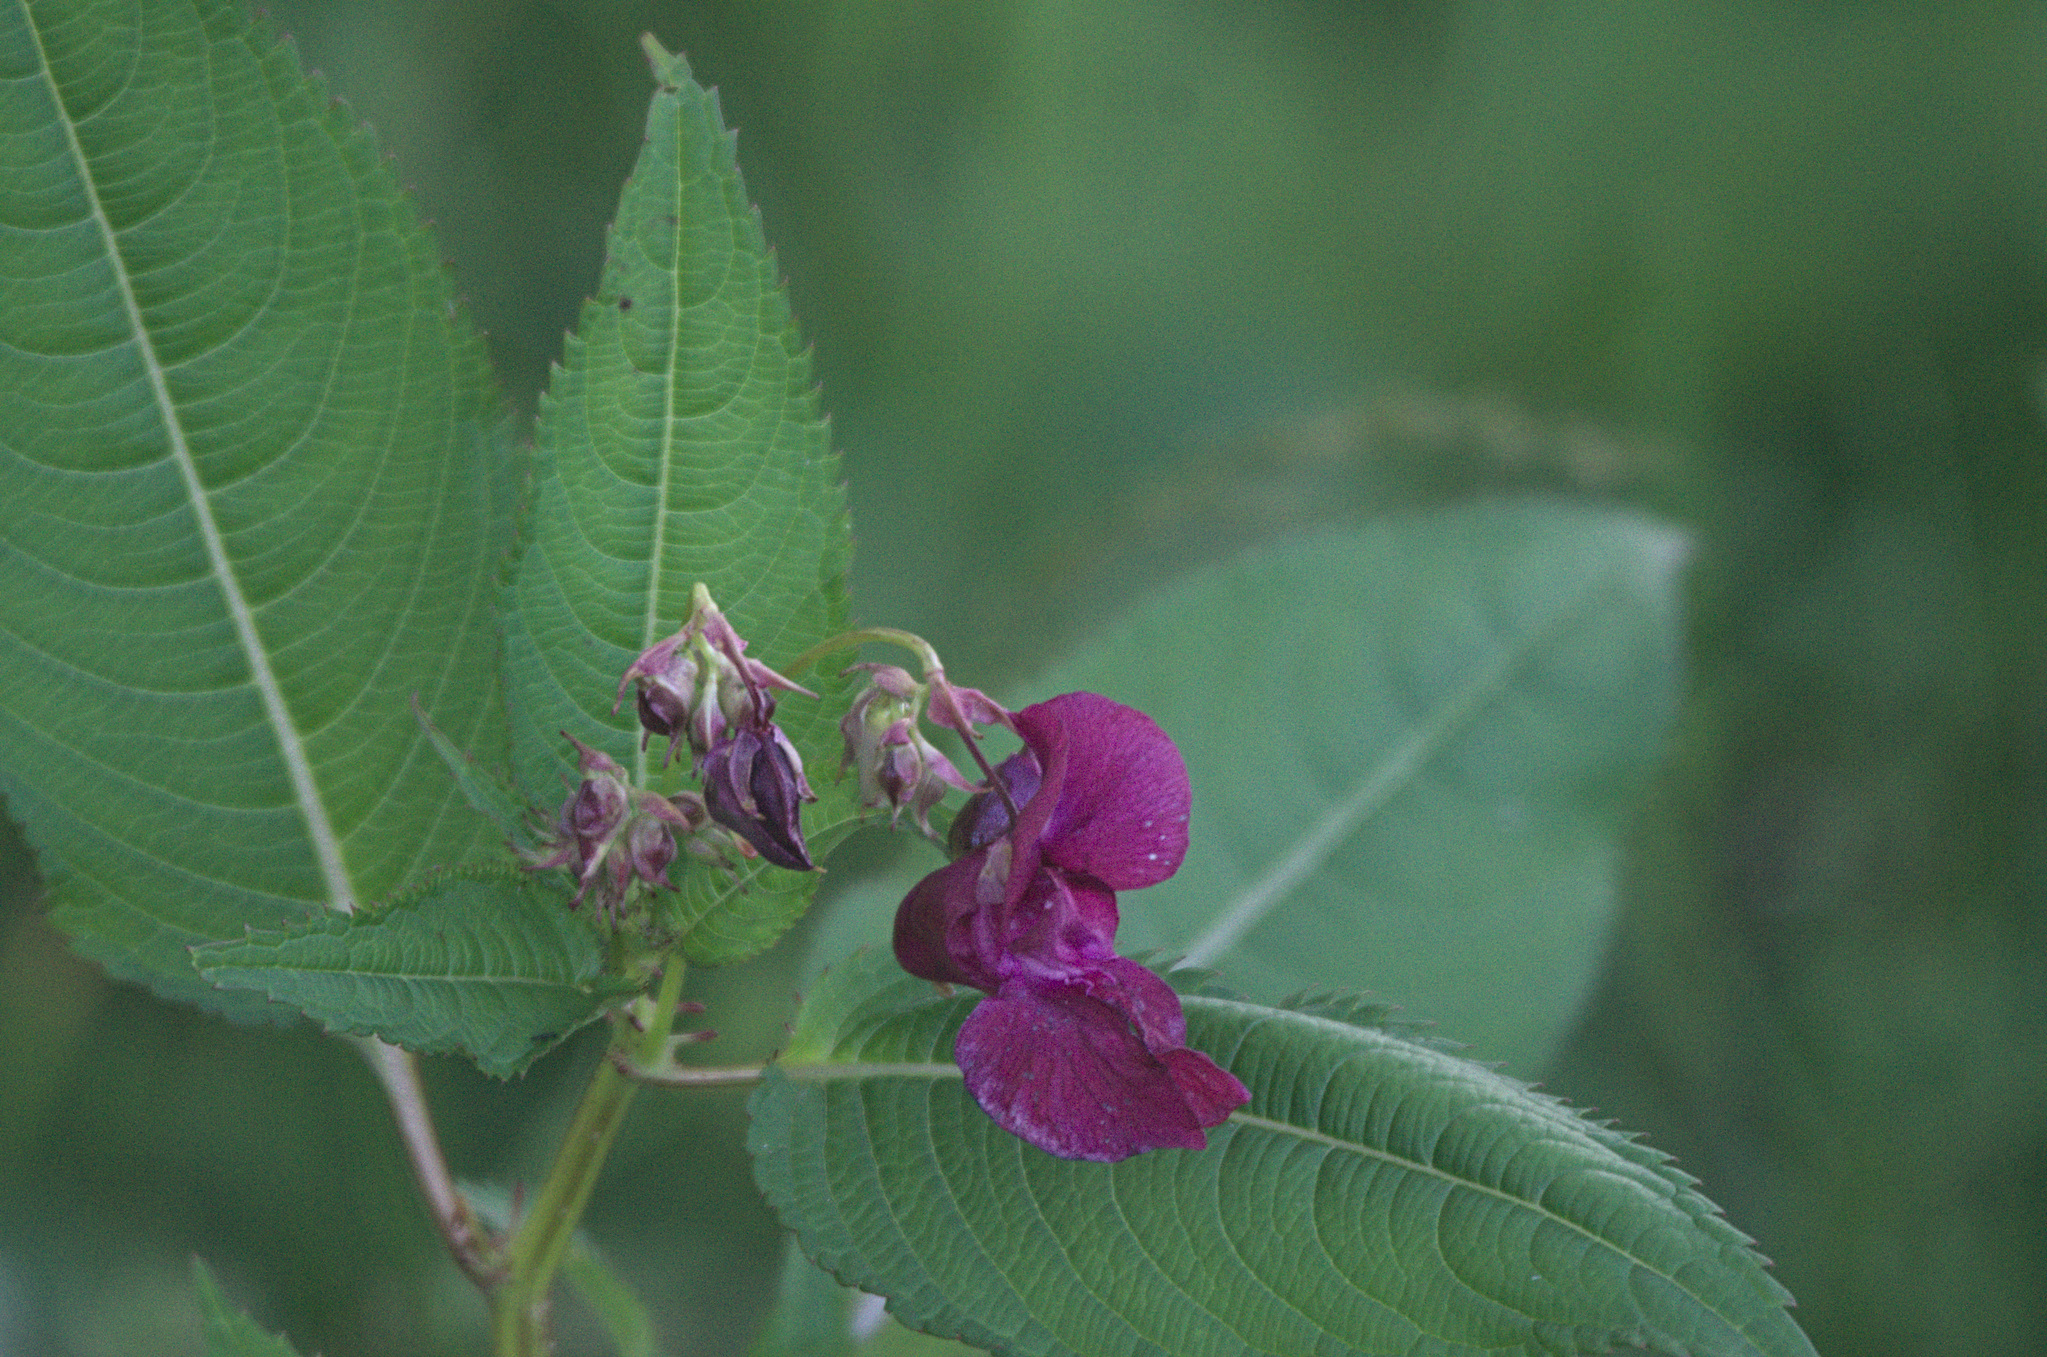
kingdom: Plantae
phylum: Tracheophyta
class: Magnoliopsida
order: Ericales
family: Balsaminaceae
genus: Impatiens
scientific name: Impatiens glandulifera
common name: Himalayan balsam
